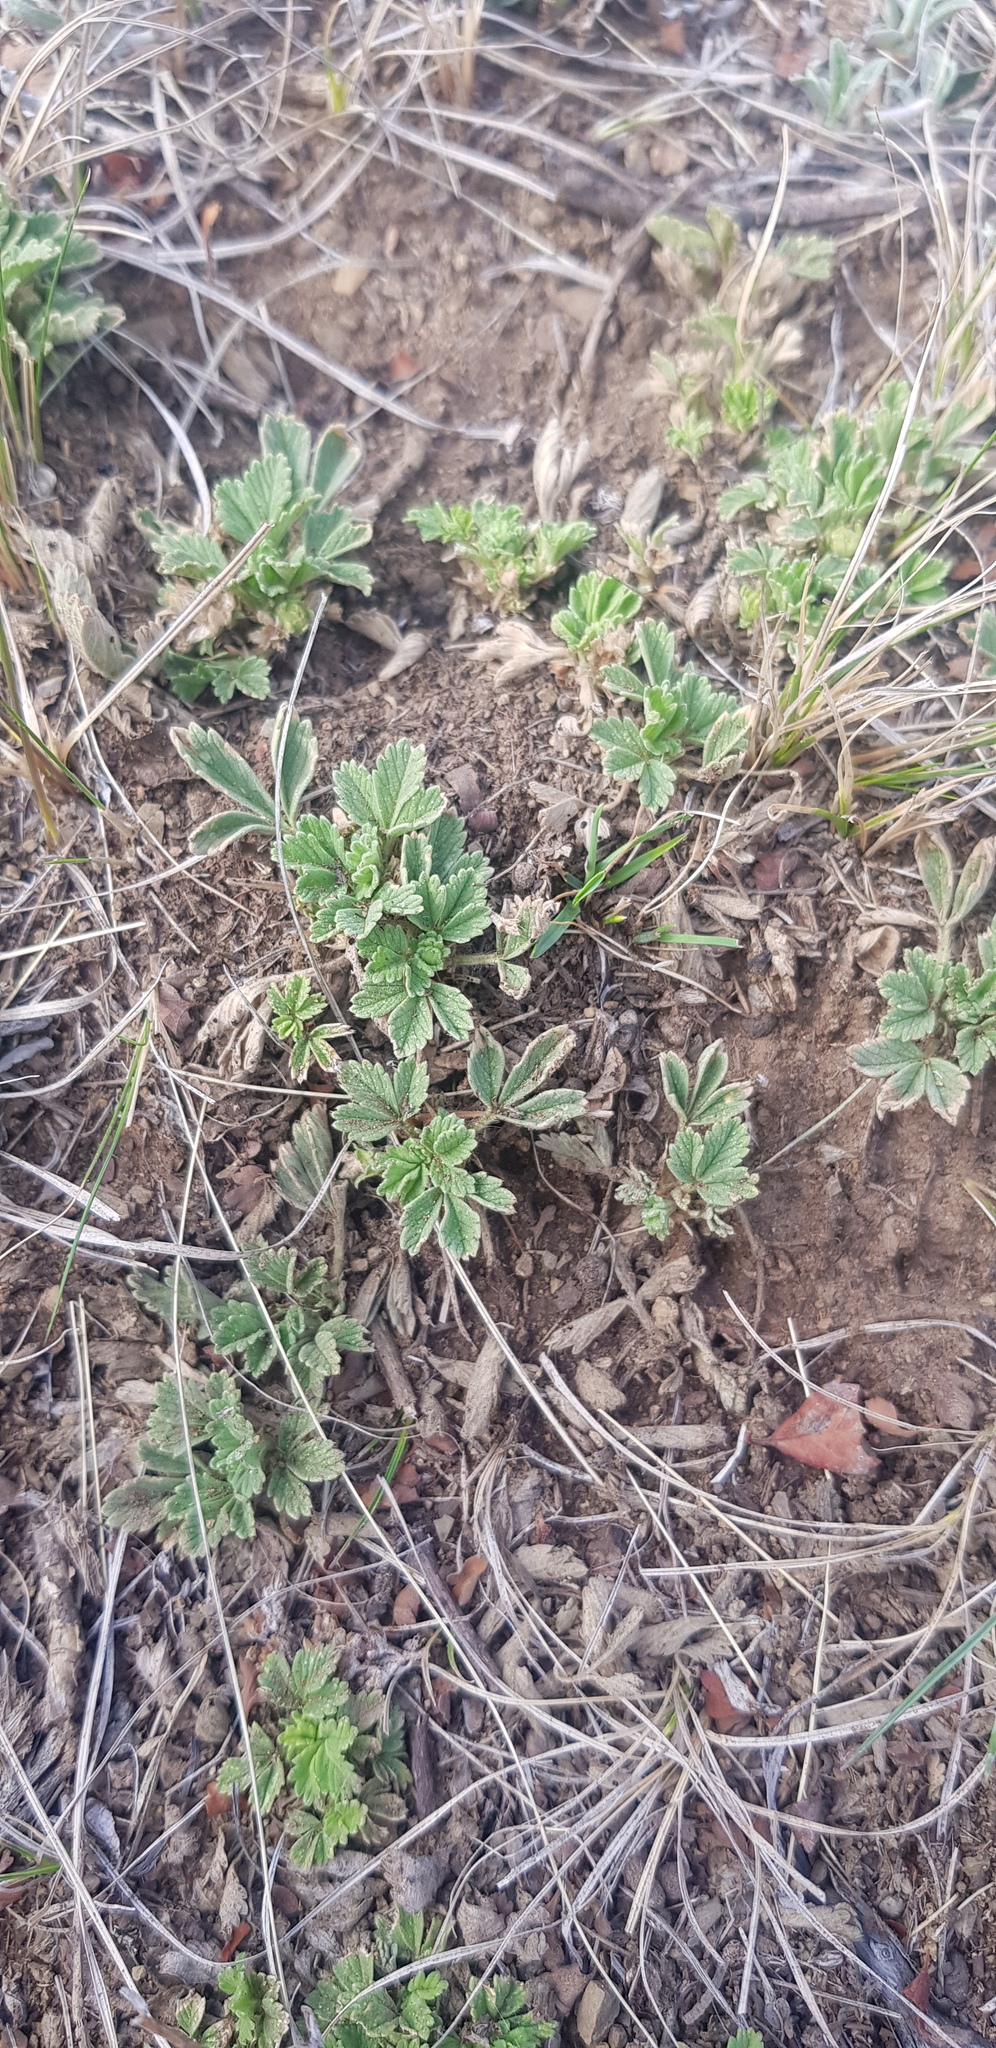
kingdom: Plantae
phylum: Tracheophyta
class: Magnoliopsida
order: Rosales
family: Rosaceae
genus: Potentilla
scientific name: Potentilla acaulis
